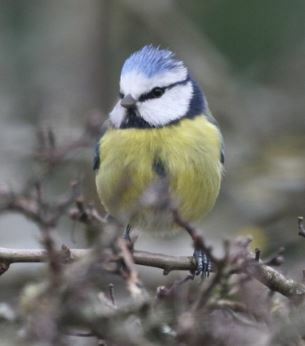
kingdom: Animalia
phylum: Chordata
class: Aves
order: Passeriformes
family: Paridae
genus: Cyanistes
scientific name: Cyanistes caeruleus
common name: Eurasian blue tit
